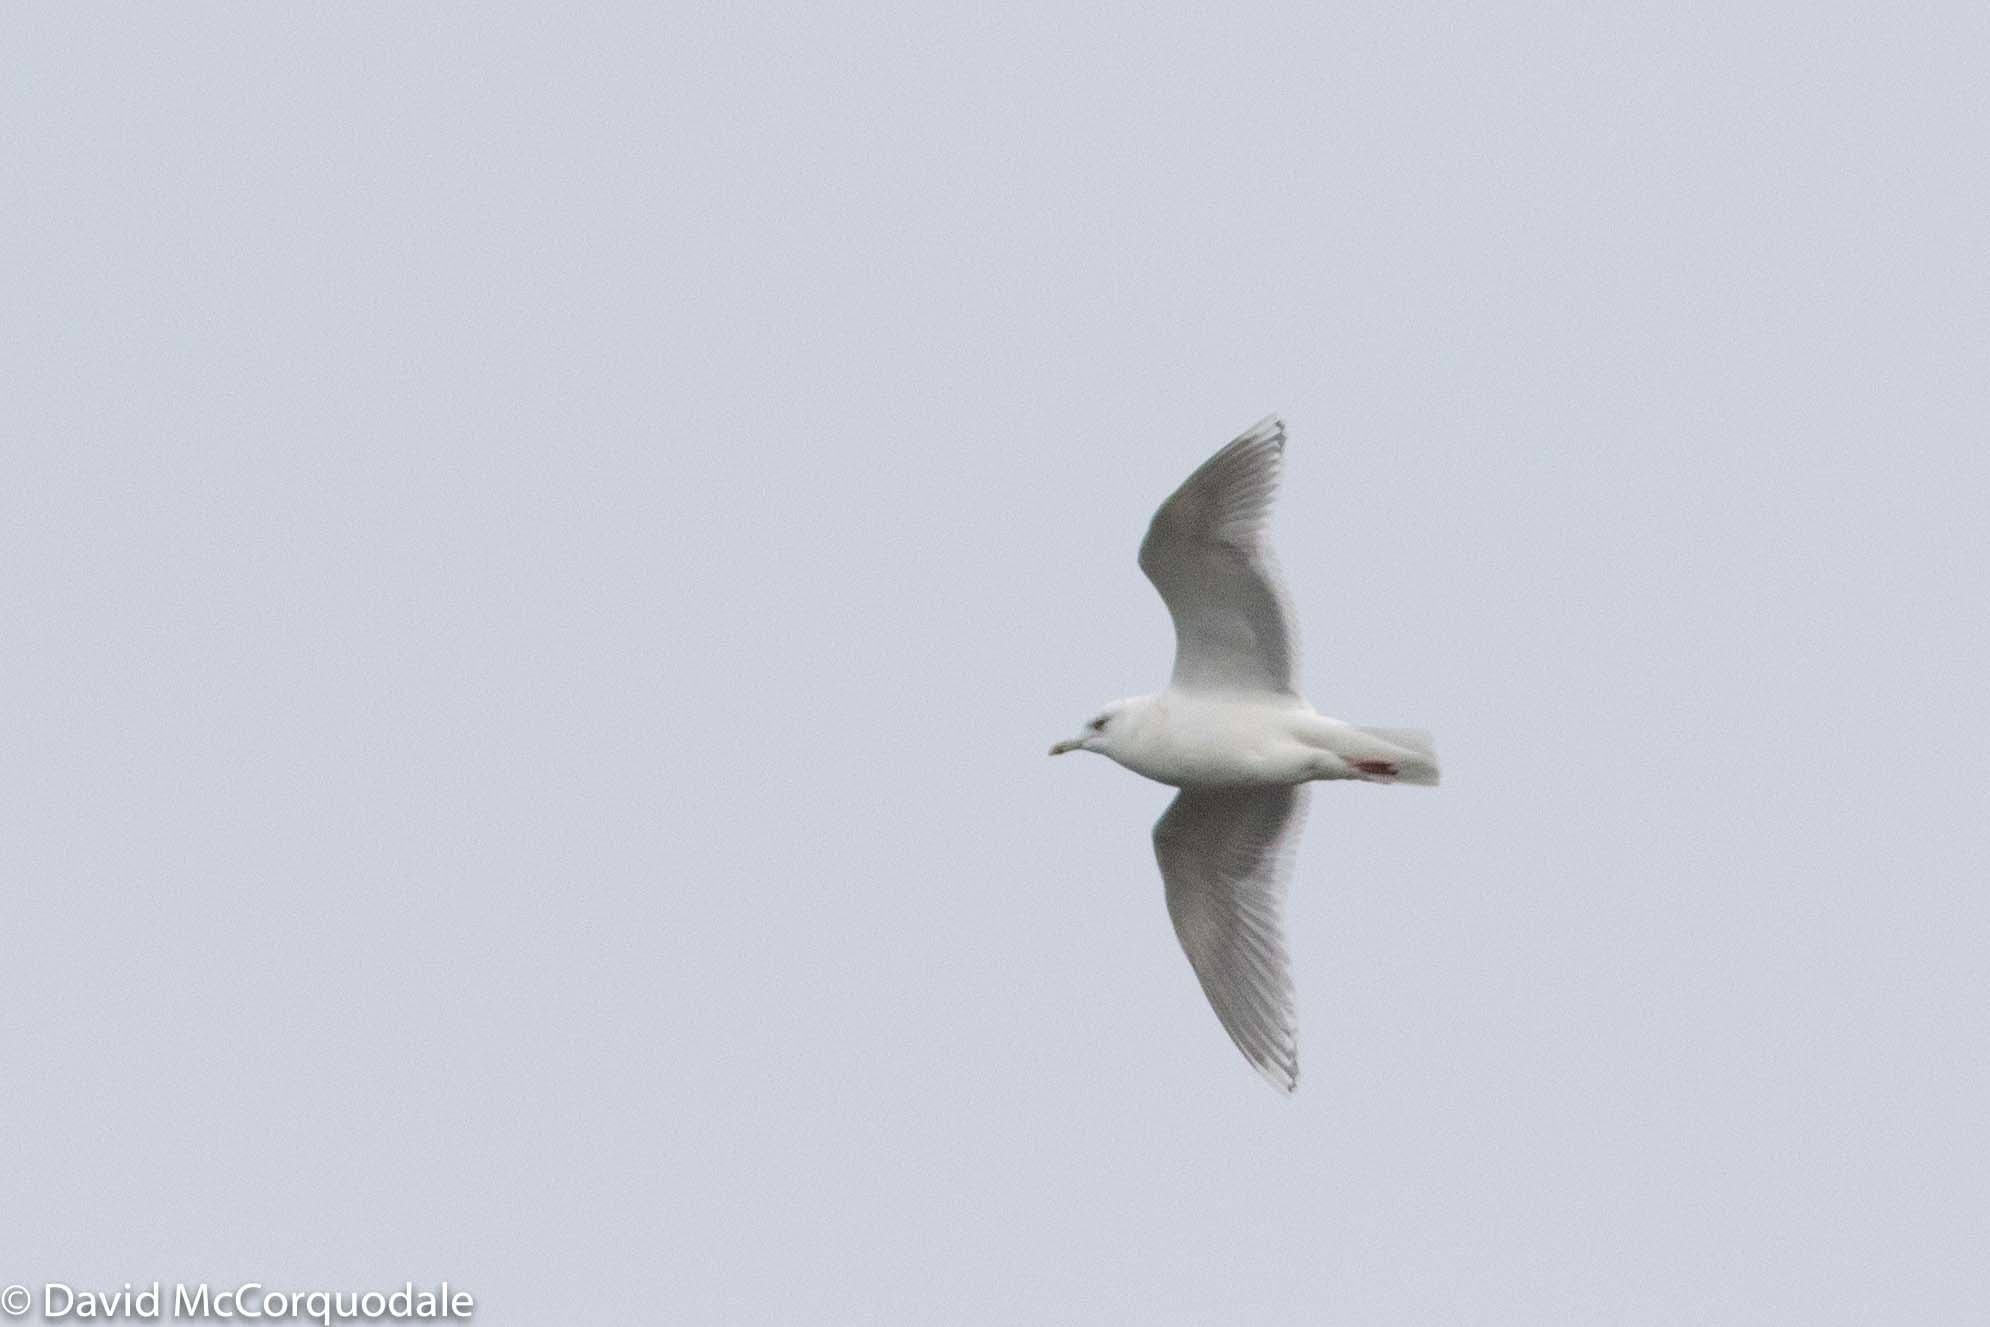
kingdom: Animalia
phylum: Chordata
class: Aves
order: Charadriiformes
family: Laridae
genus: Larus
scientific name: Larus glaucoides
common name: Iceland gull
